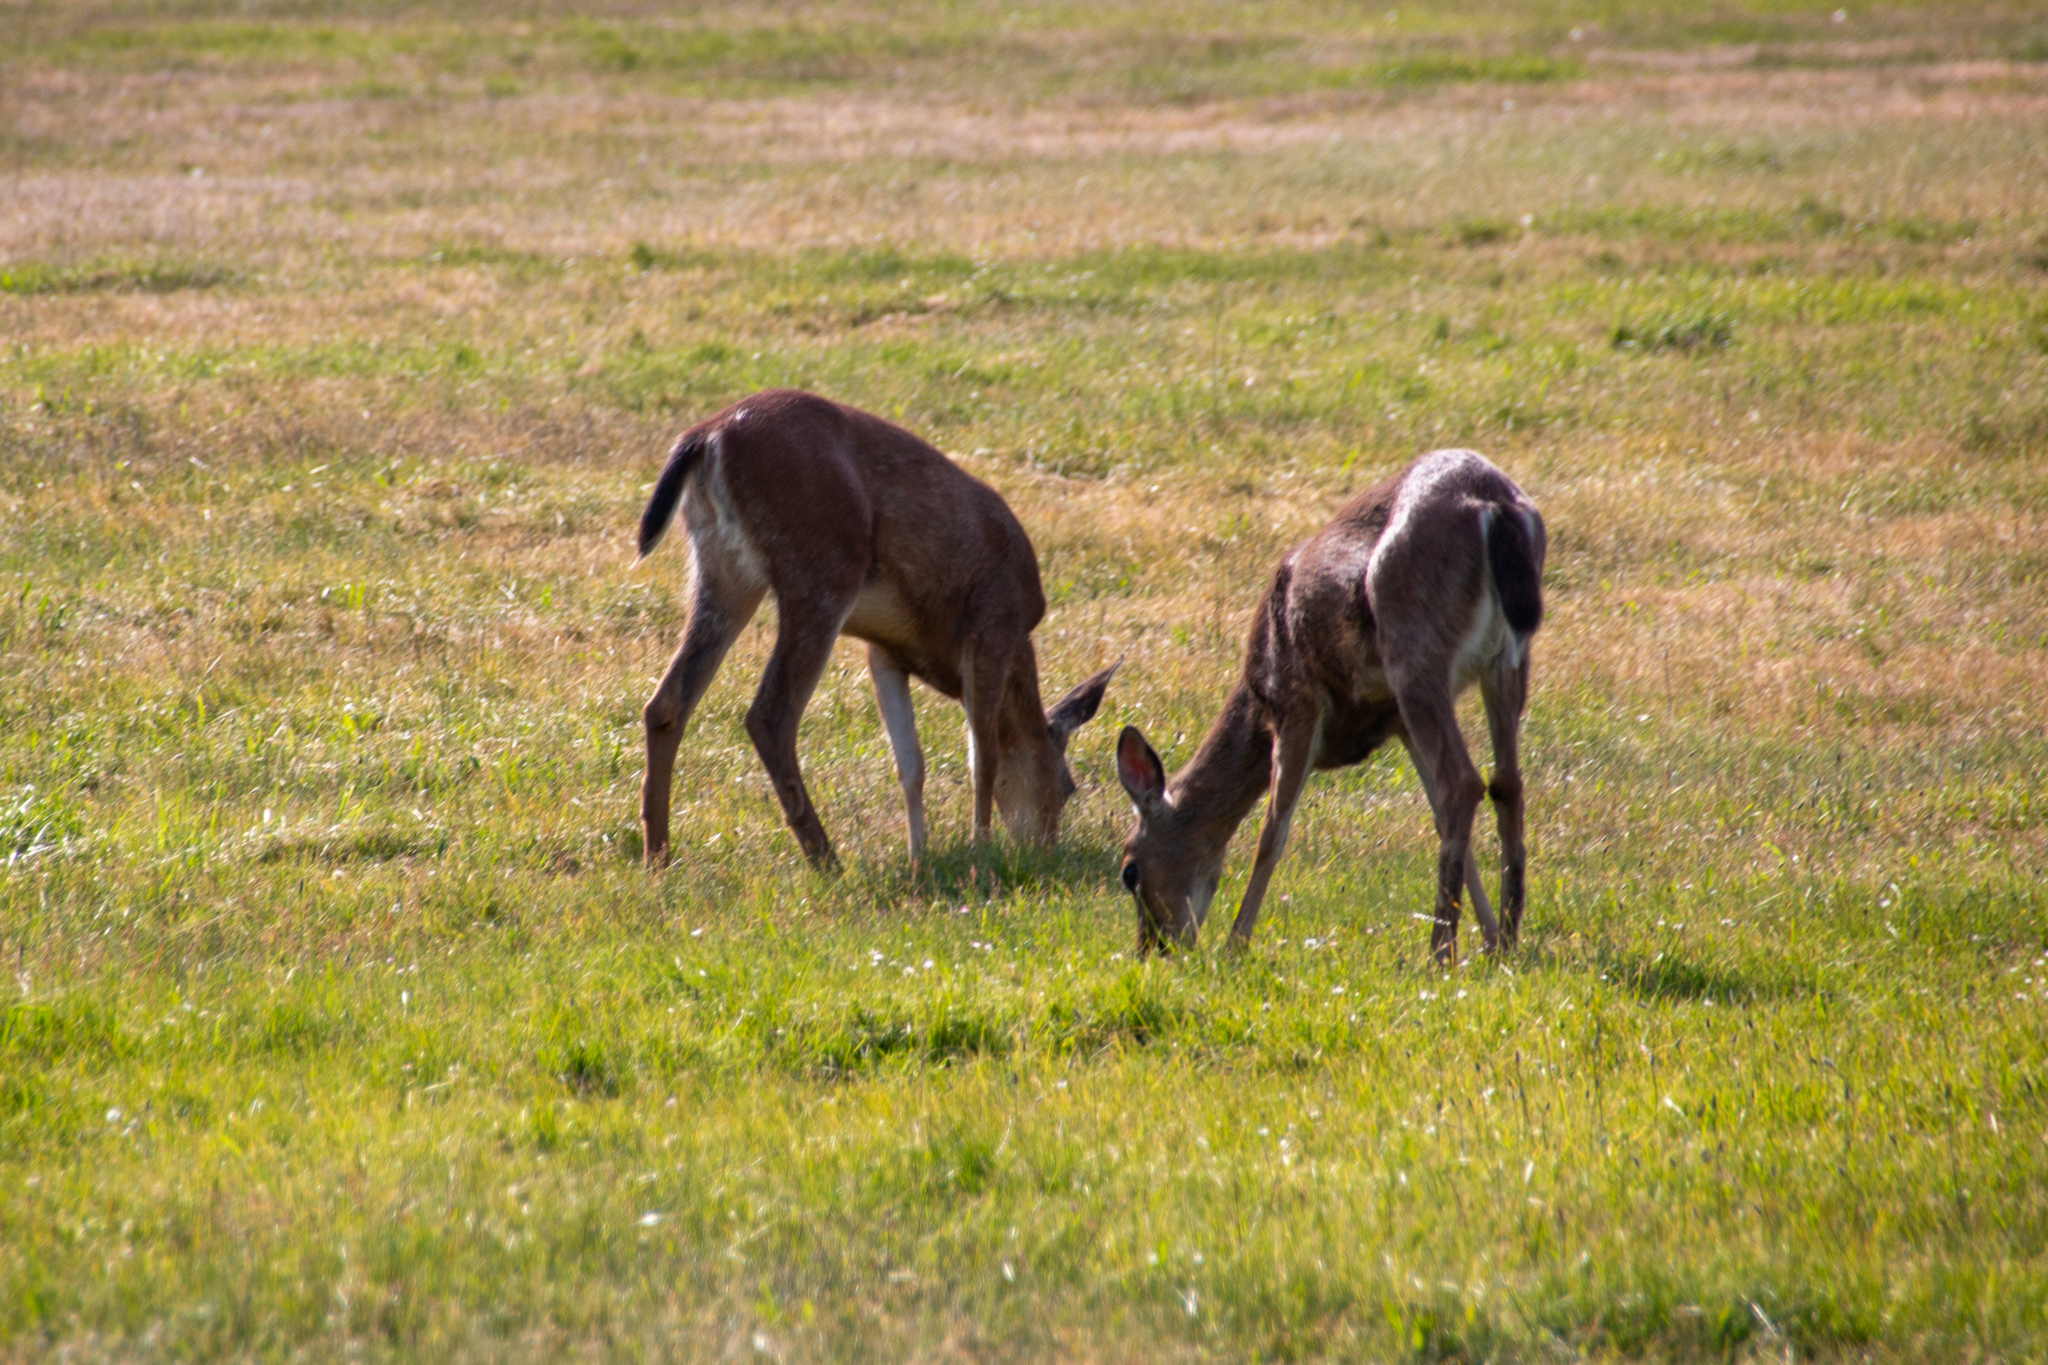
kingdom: Animalia
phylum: Chordata
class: Mammalia
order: Artiodactyla
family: Cervidae
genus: Odocoileus
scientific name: Odocoileus hemionus
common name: Mule deer
